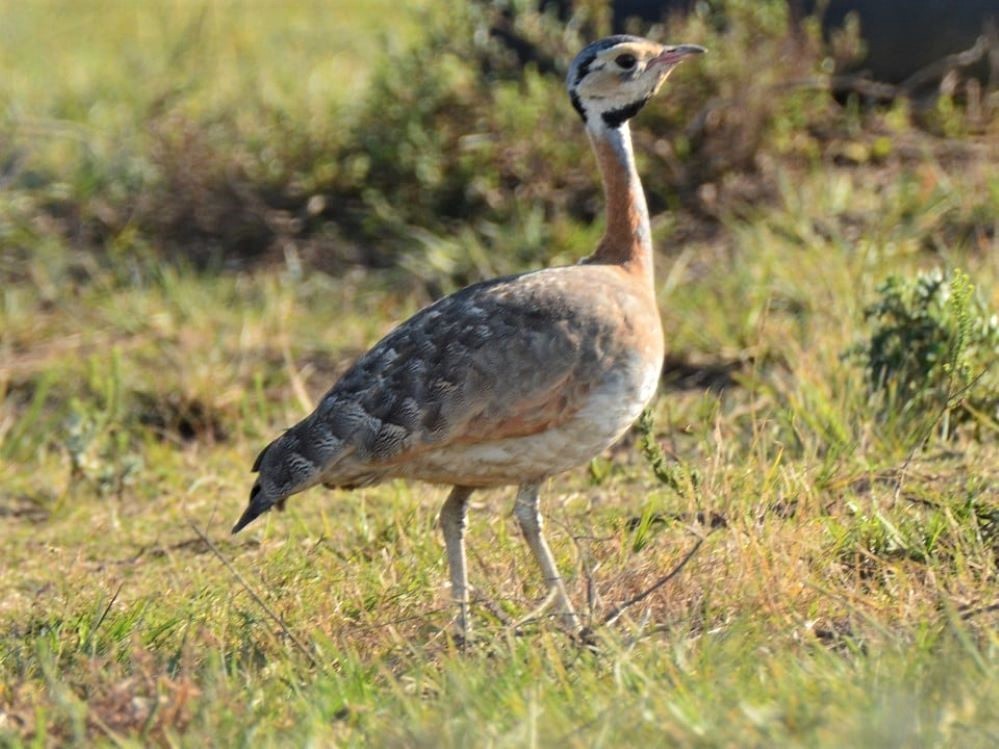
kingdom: Animalia
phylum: Chordata
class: Aves
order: Otidiformes
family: Otididae
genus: Eupodotis
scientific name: Eupodotis senegalensis
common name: White-bellied bustard
